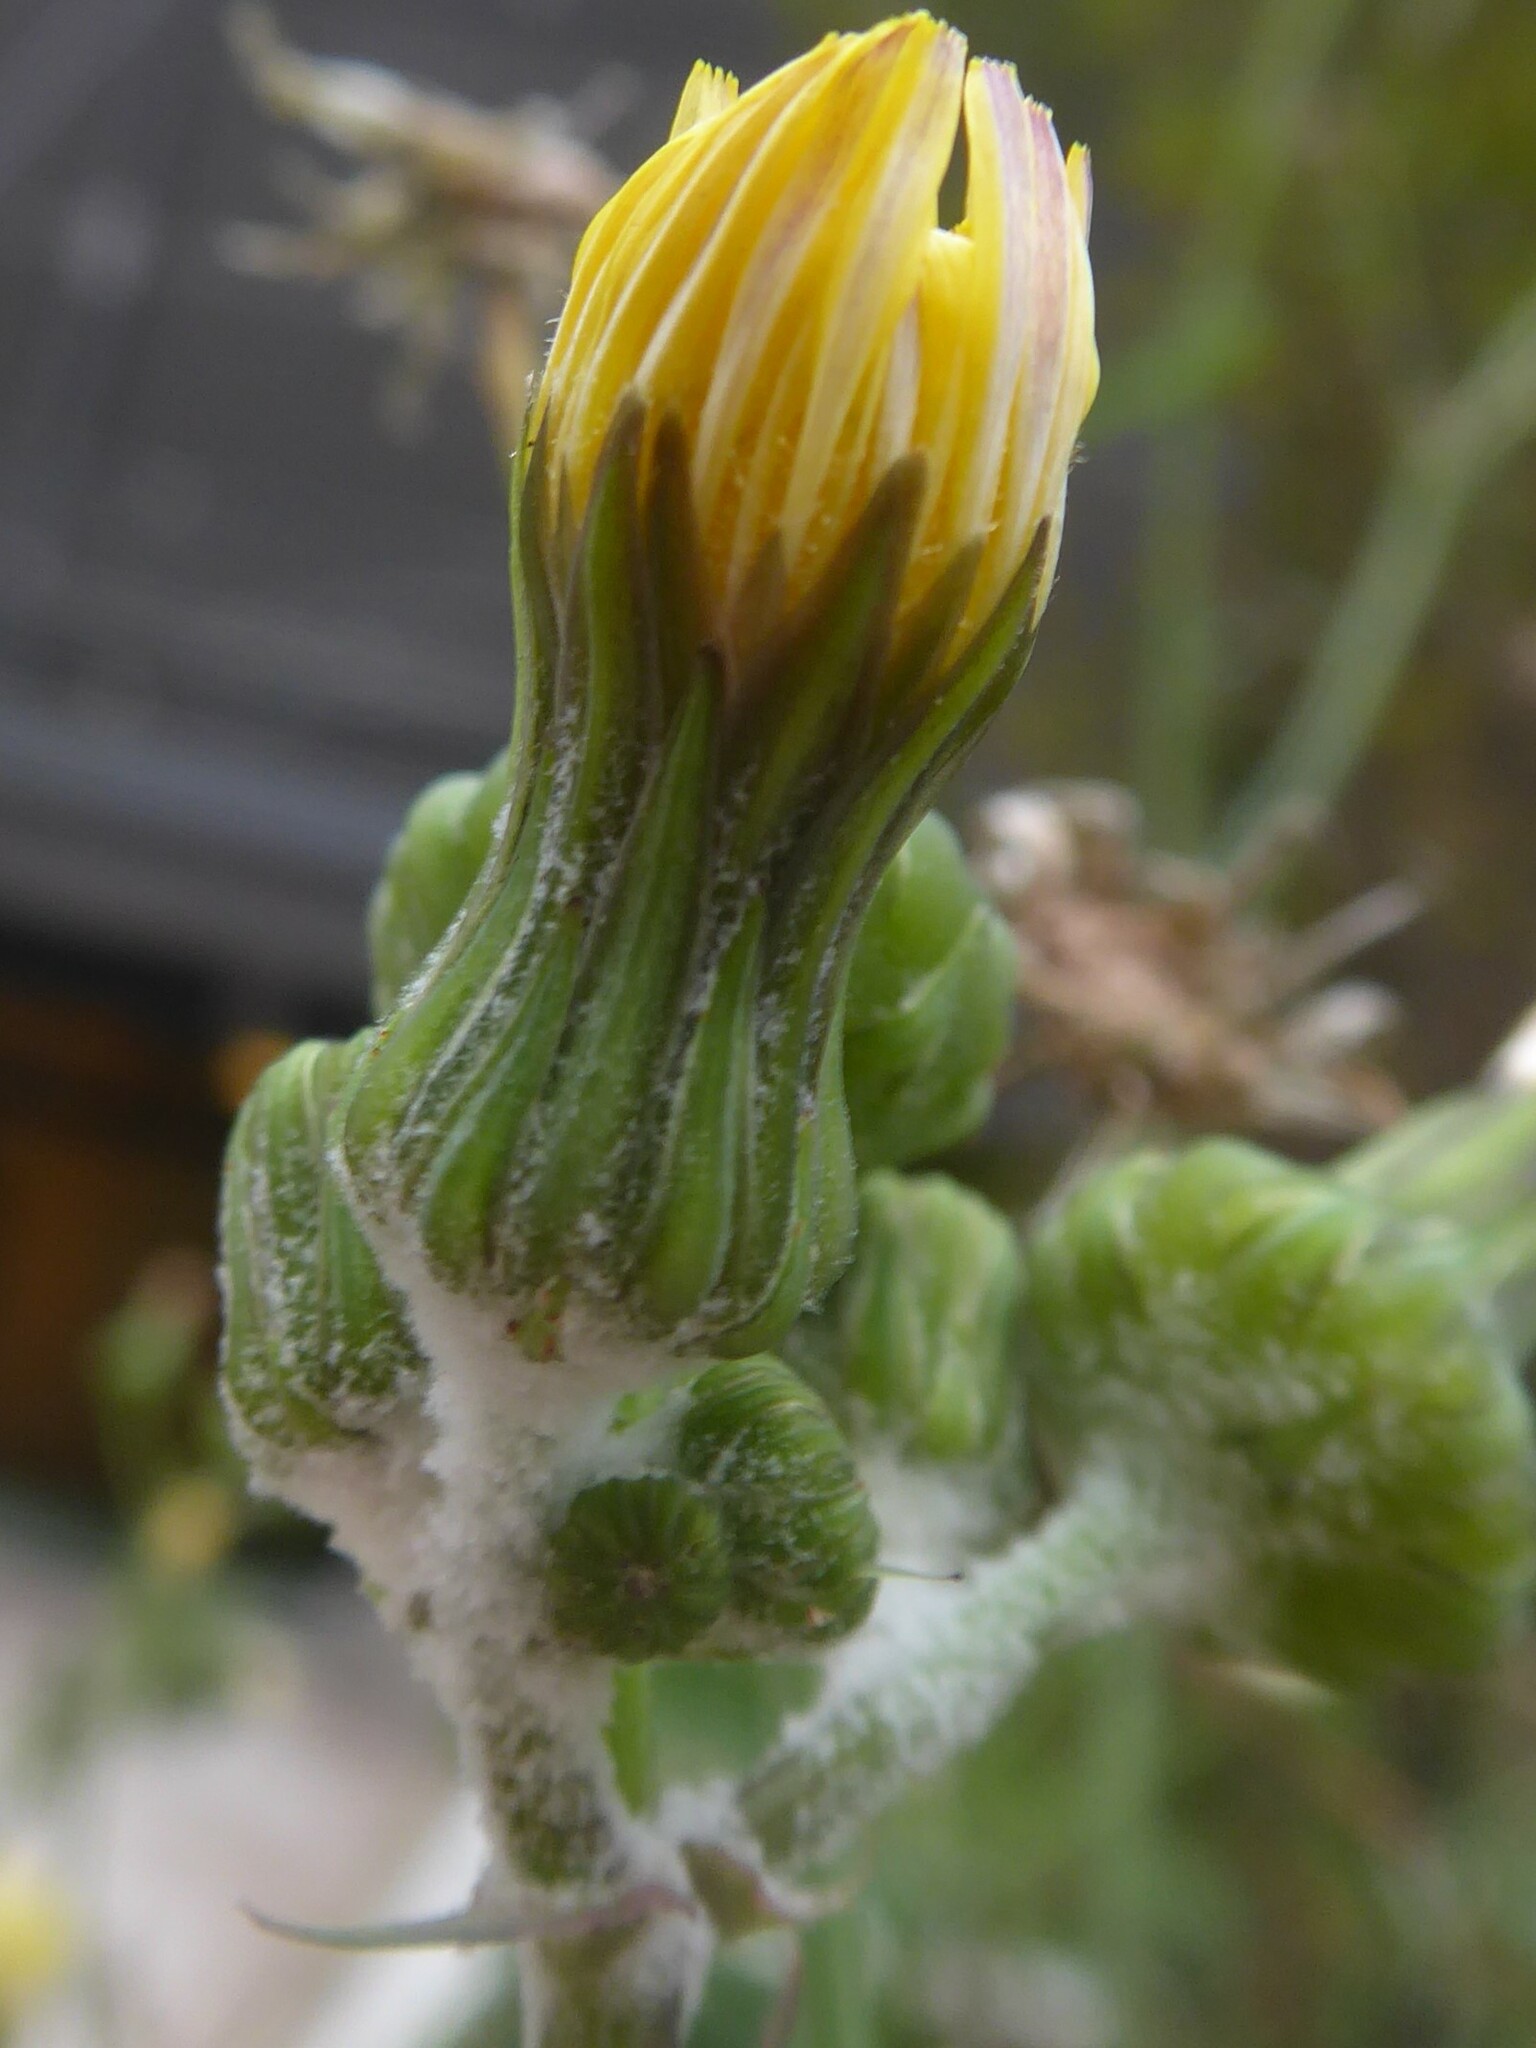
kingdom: Protozoa
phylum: Mycetozoa
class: Myxomycetes
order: Physarales
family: Physaraceae
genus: Physarum
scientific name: Physarum cinereum
